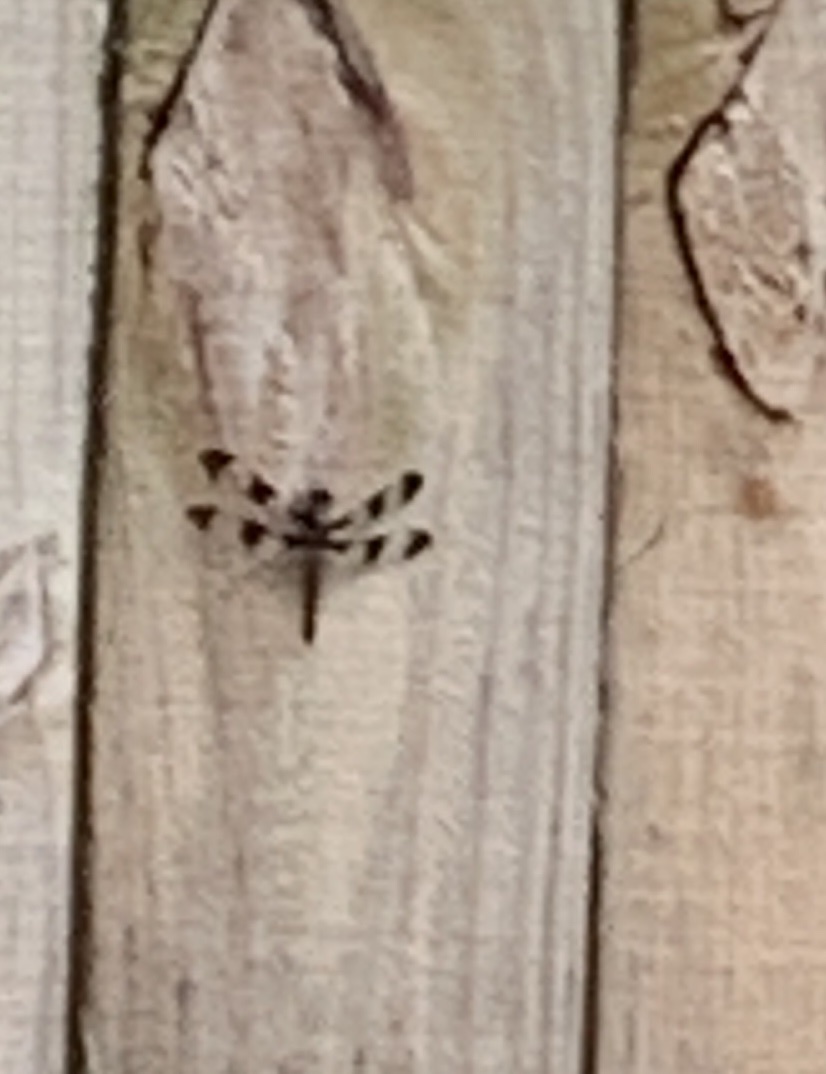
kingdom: Animalia
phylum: Arthropoda
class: Insecta
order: Odonata
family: Libellulidae
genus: Plathemis
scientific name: Plathemis lydia
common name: Common whitetail
